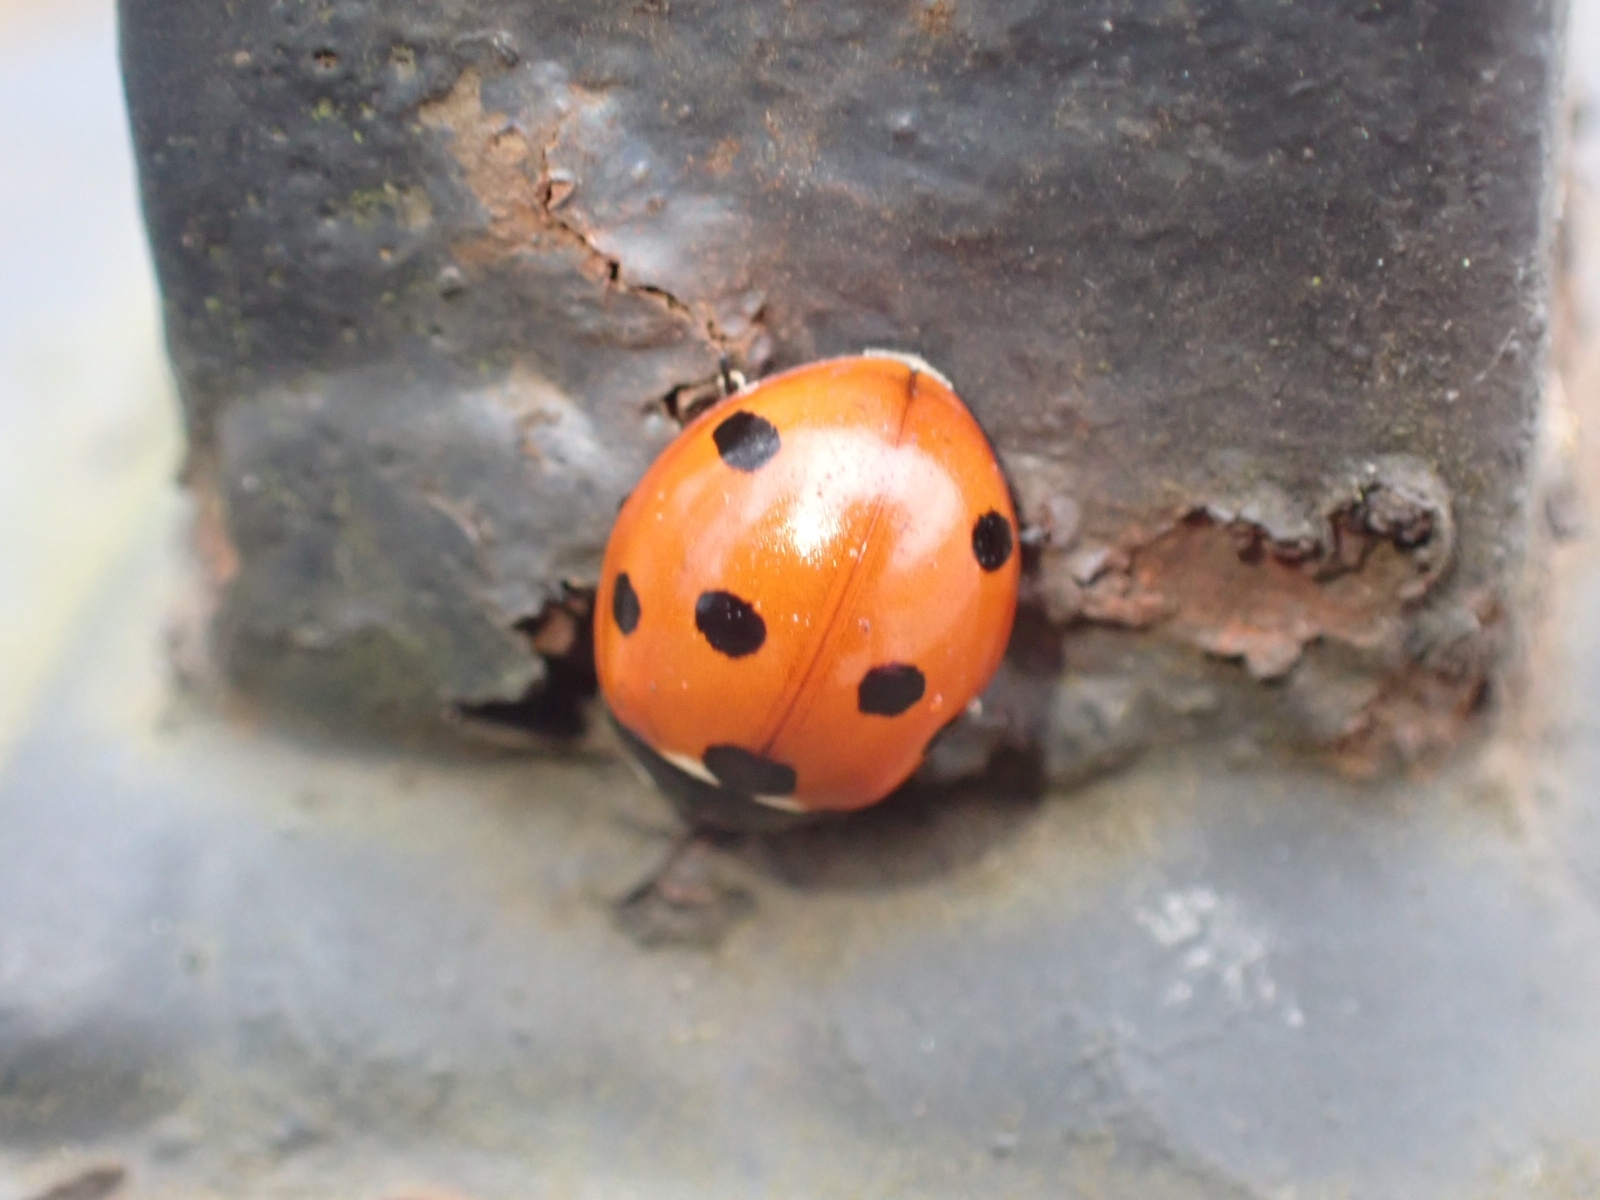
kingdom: Animalia
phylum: Arthropoda
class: Insecta
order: Coleoptera
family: Coccinellidae
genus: Coccinella
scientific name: Coccinella septempunctata
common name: Sevenspotted lady beetle
